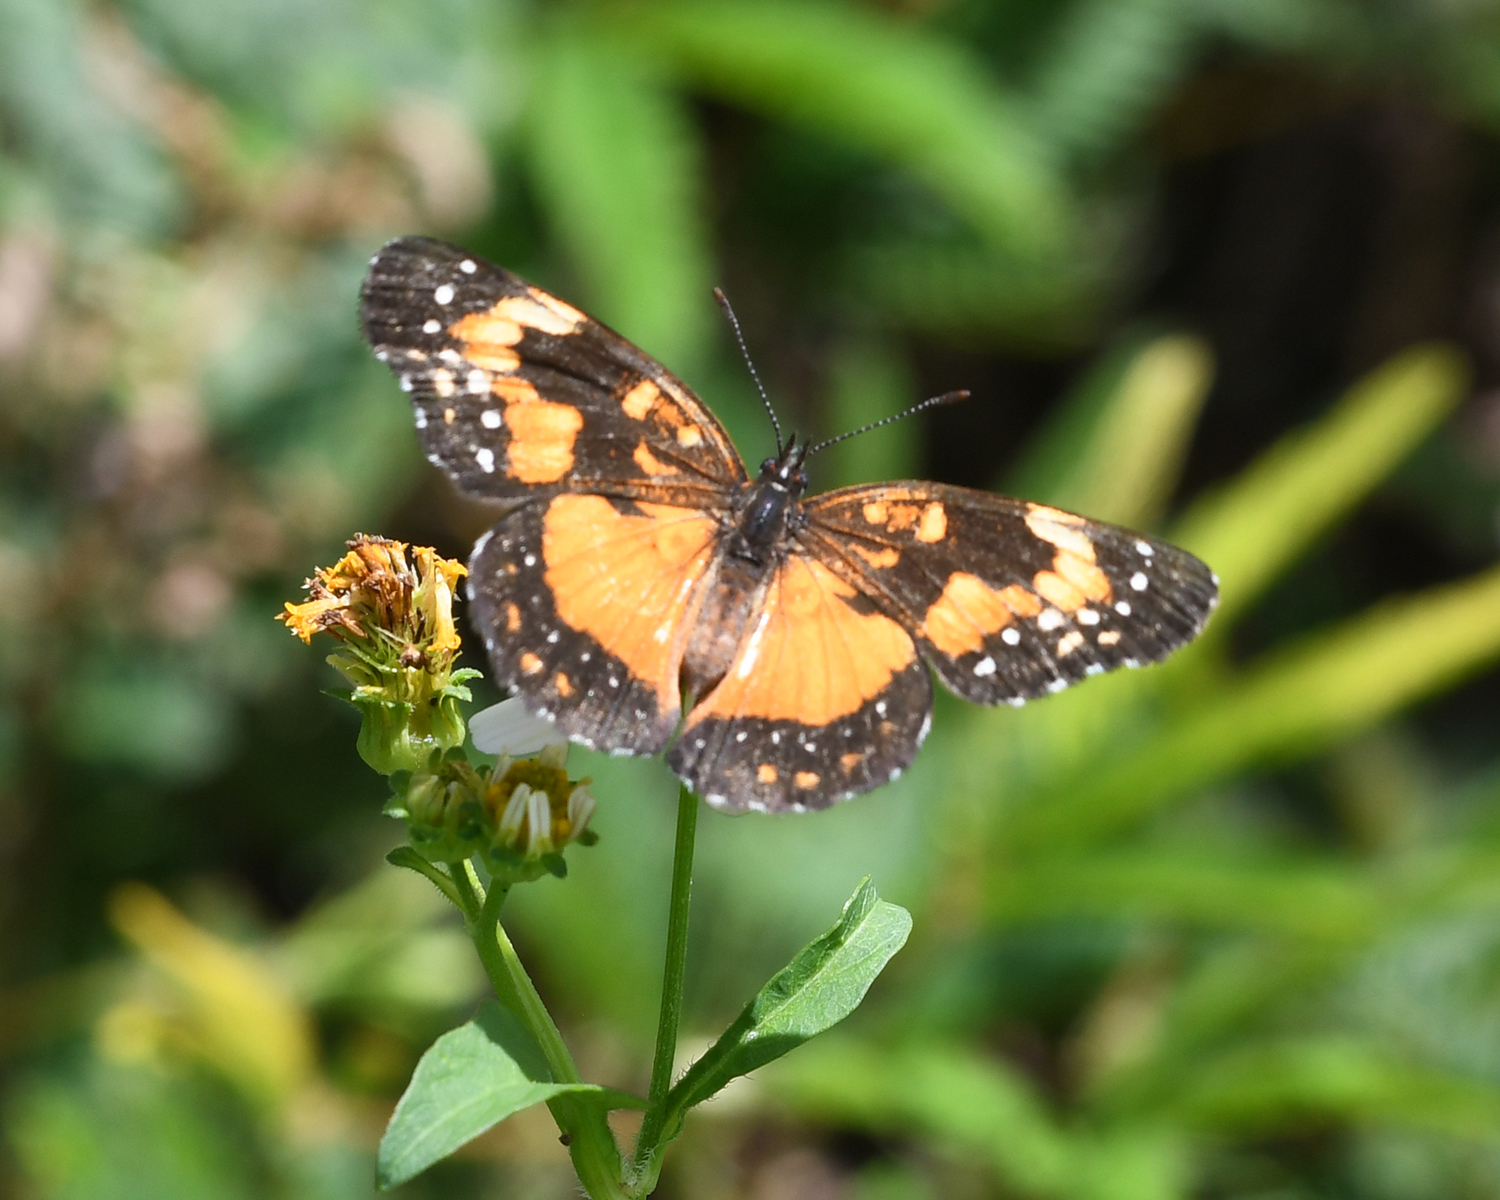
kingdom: Animalia
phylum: Arthropoda
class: Insecta
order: Lepidoptera
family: Nymphalidae
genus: Chlosyne
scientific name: Chlosyne lacinia
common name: Bordered patch
